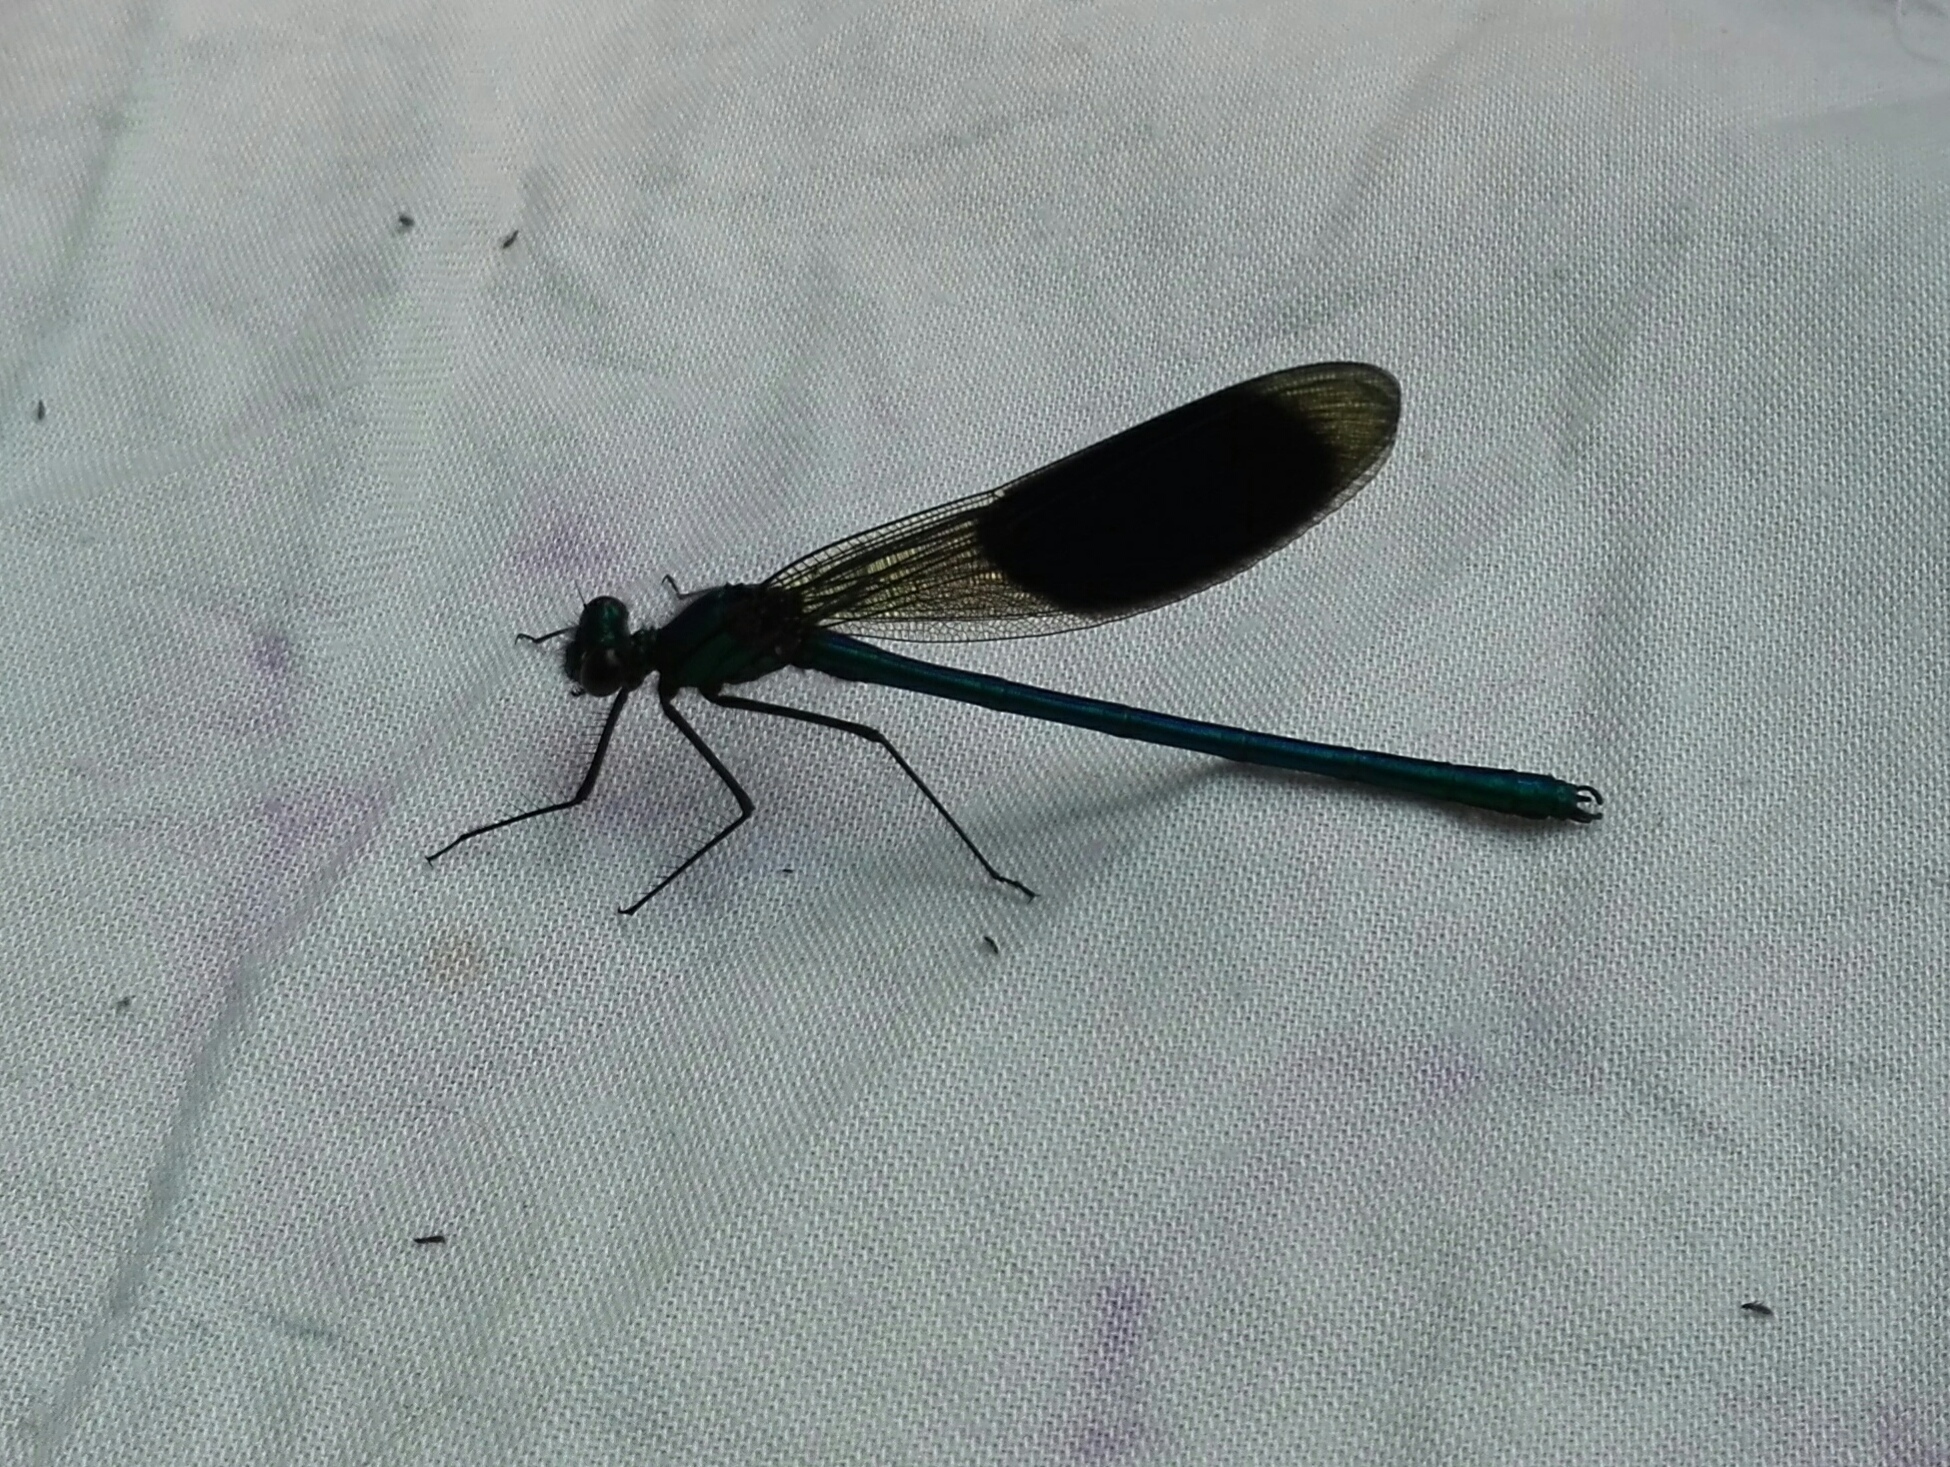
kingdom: Animalia
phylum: Arthropoda
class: Insecta
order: Odonata
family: Calopterygidae
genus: Calopteryx
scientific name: Calopteryx splendens
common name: Banded demoiselle
